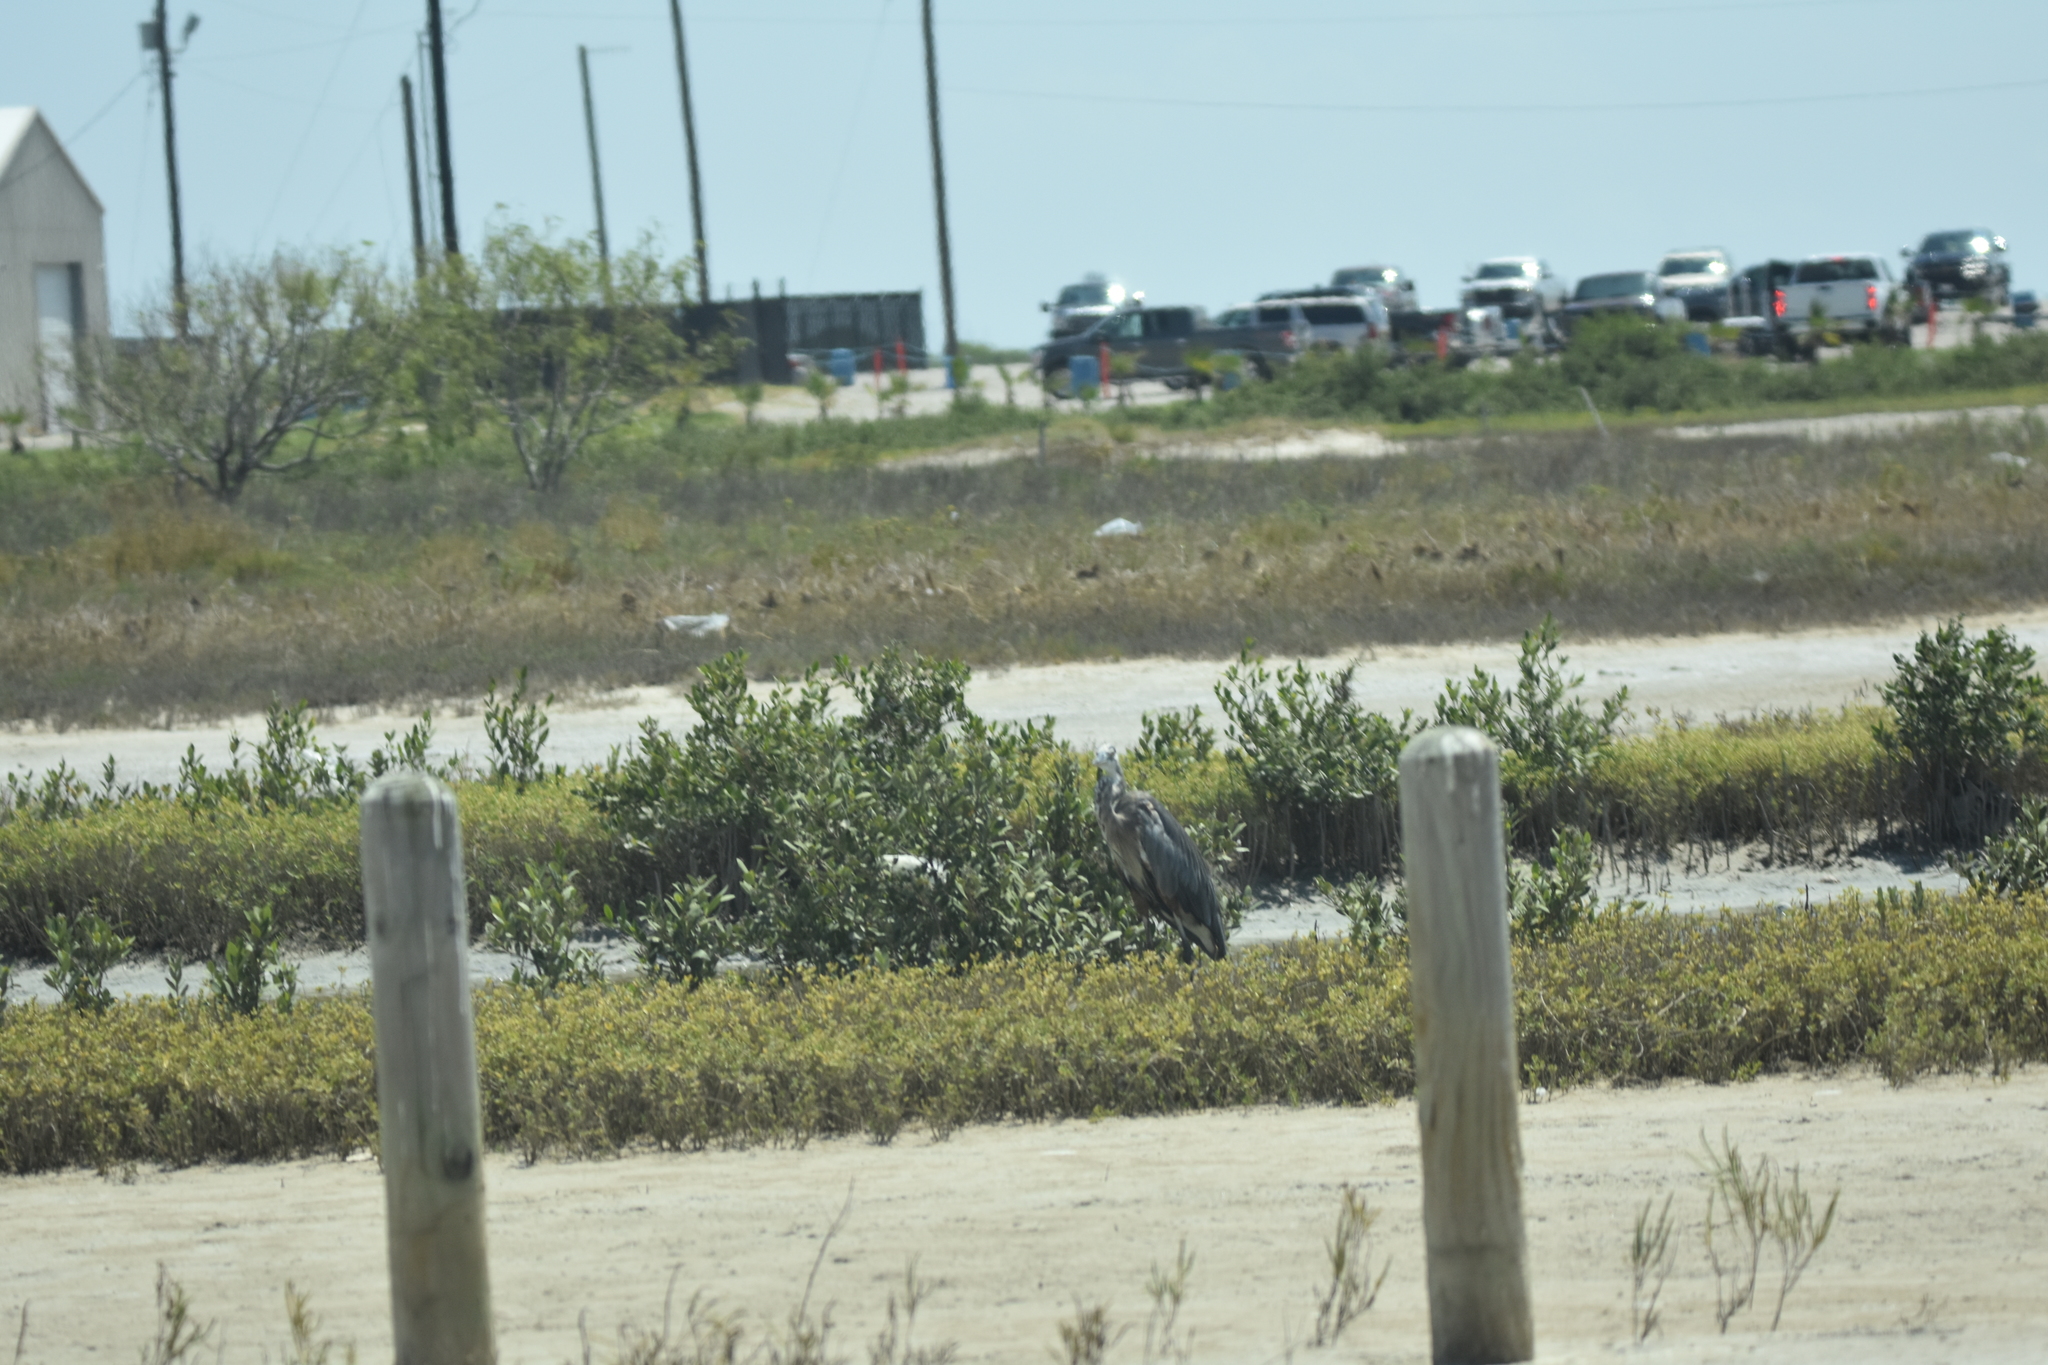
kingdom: Animalia
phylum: Chordata
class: Aves
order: Pelecaniformes
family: Ardeidae
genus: Ardea
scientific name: Ardea herodias
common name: Great blue heron
